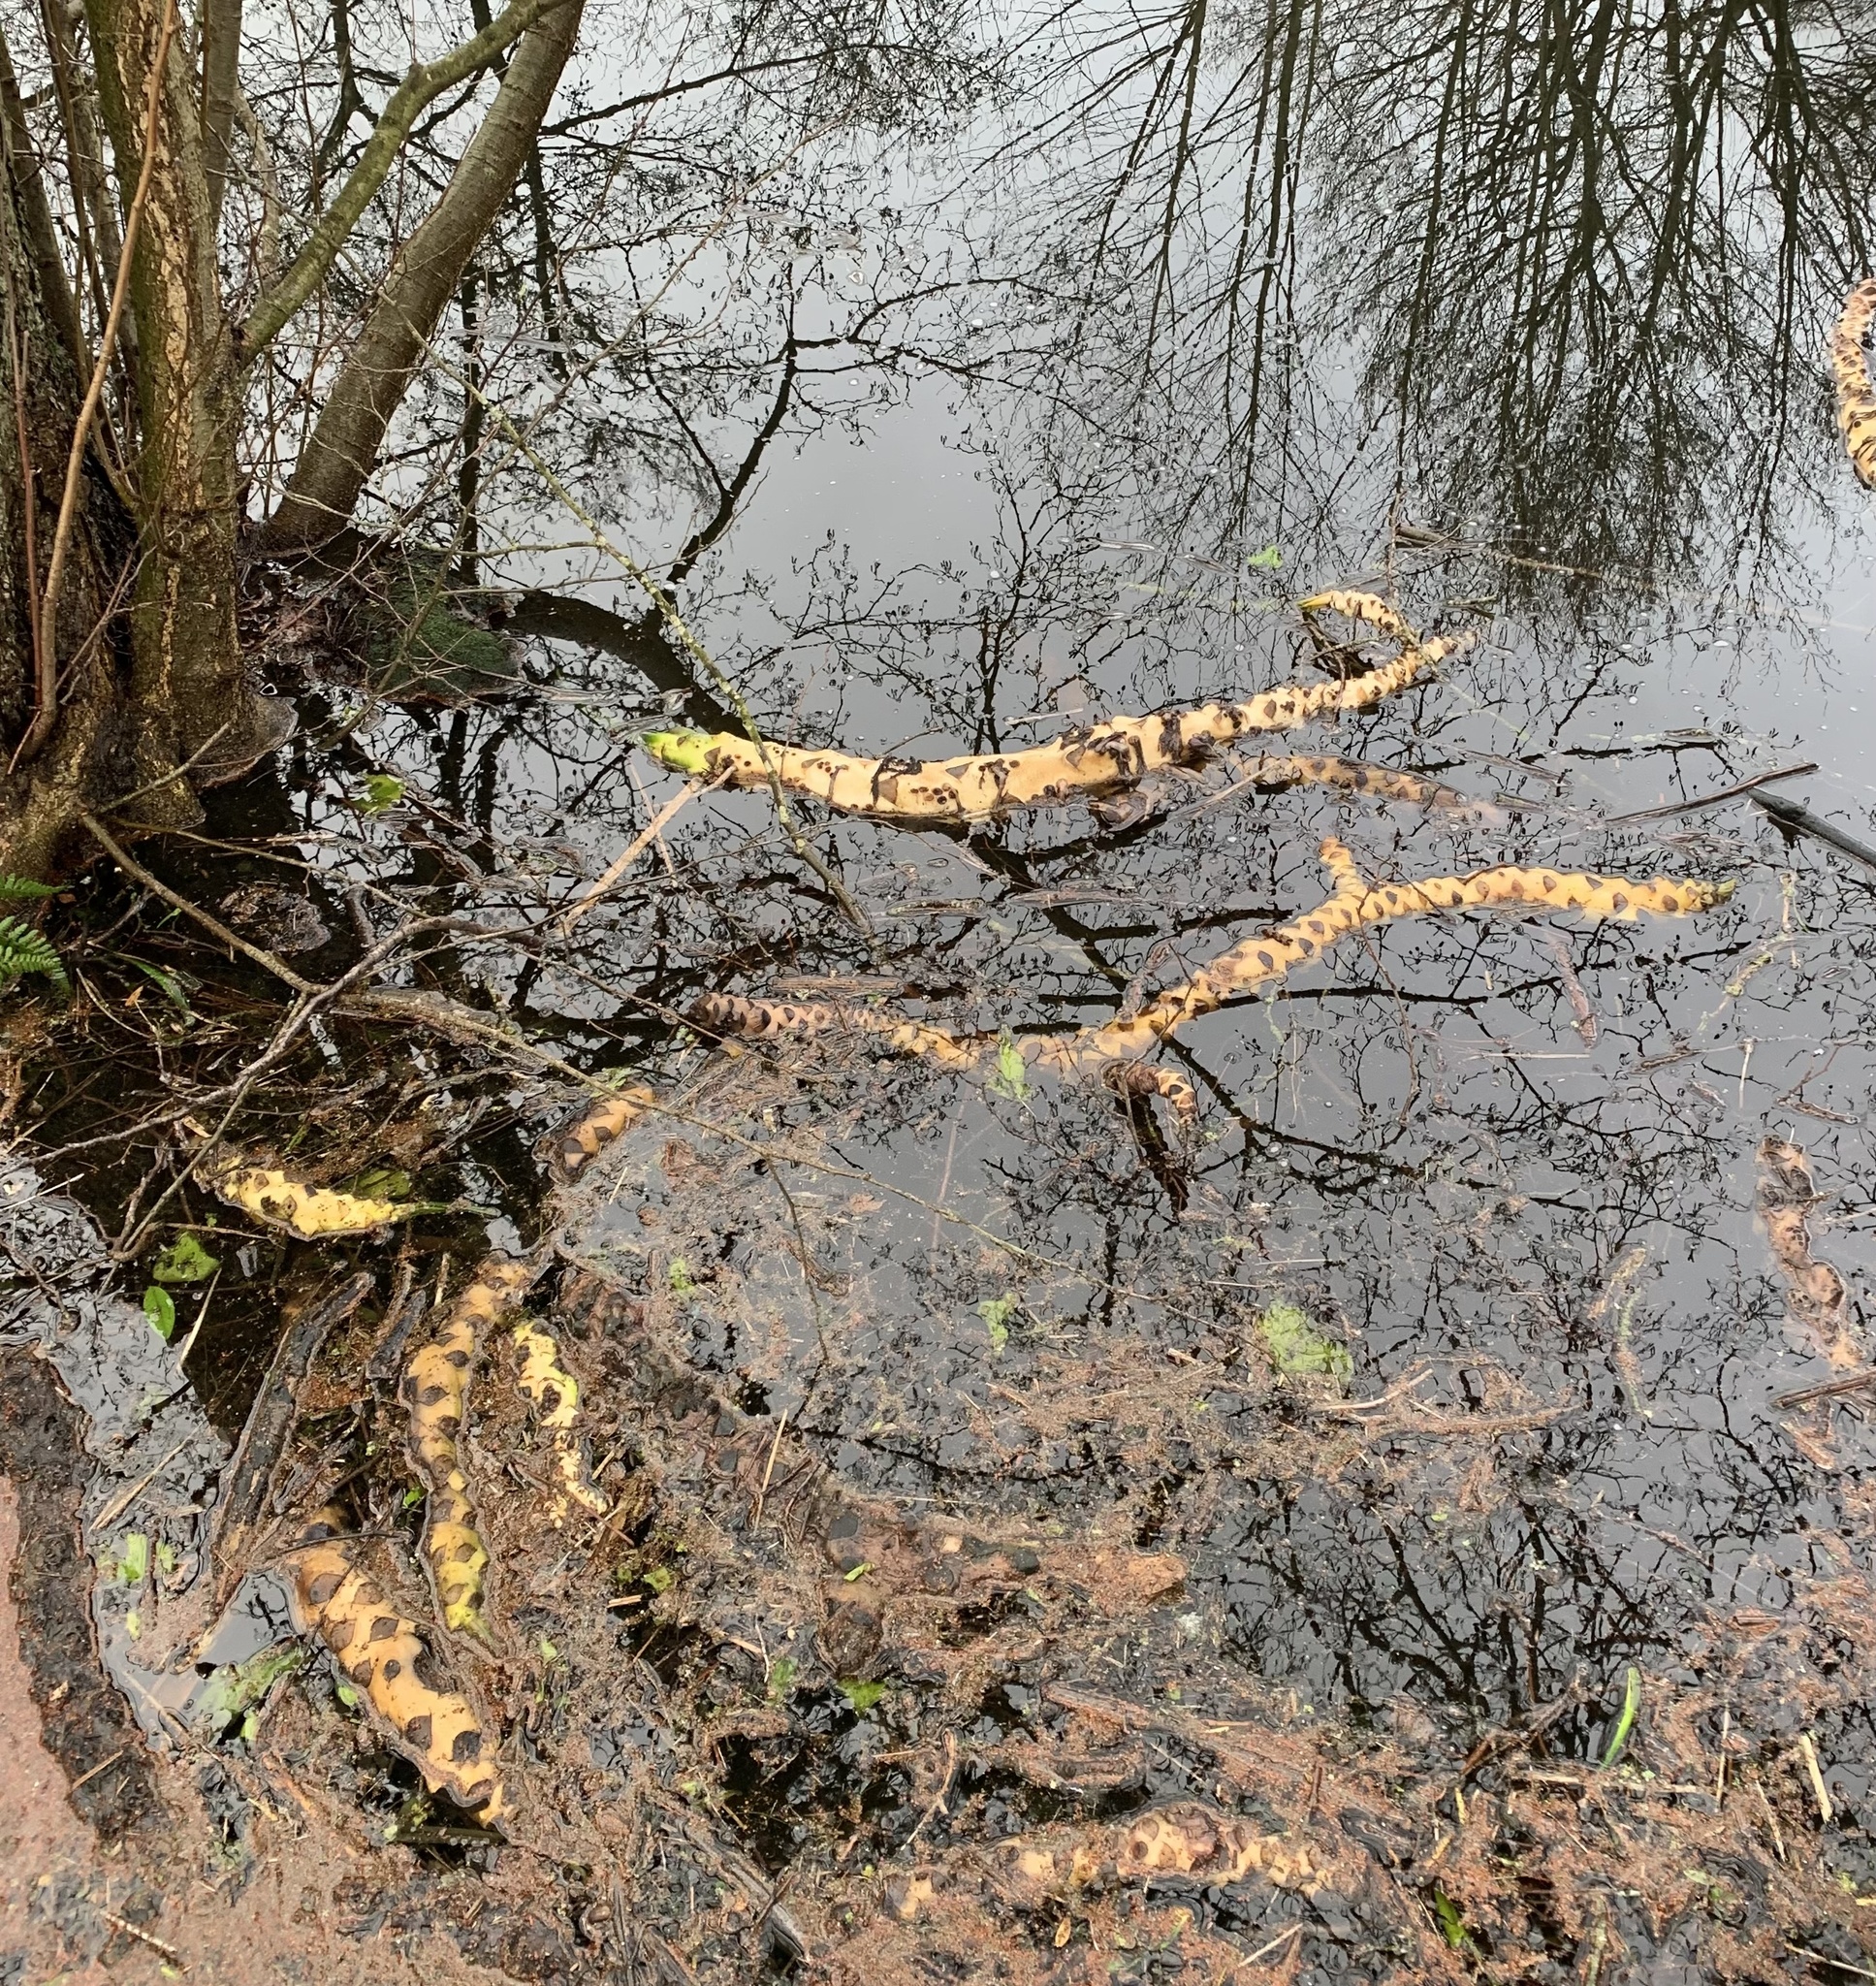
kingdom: Plantae
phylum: Tracheophyta
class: Magnoliopsida
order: Nymphaeales
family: Nymphaeaceae
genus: Nymphaea
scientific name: Nymphaea alba
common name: White water-lily
